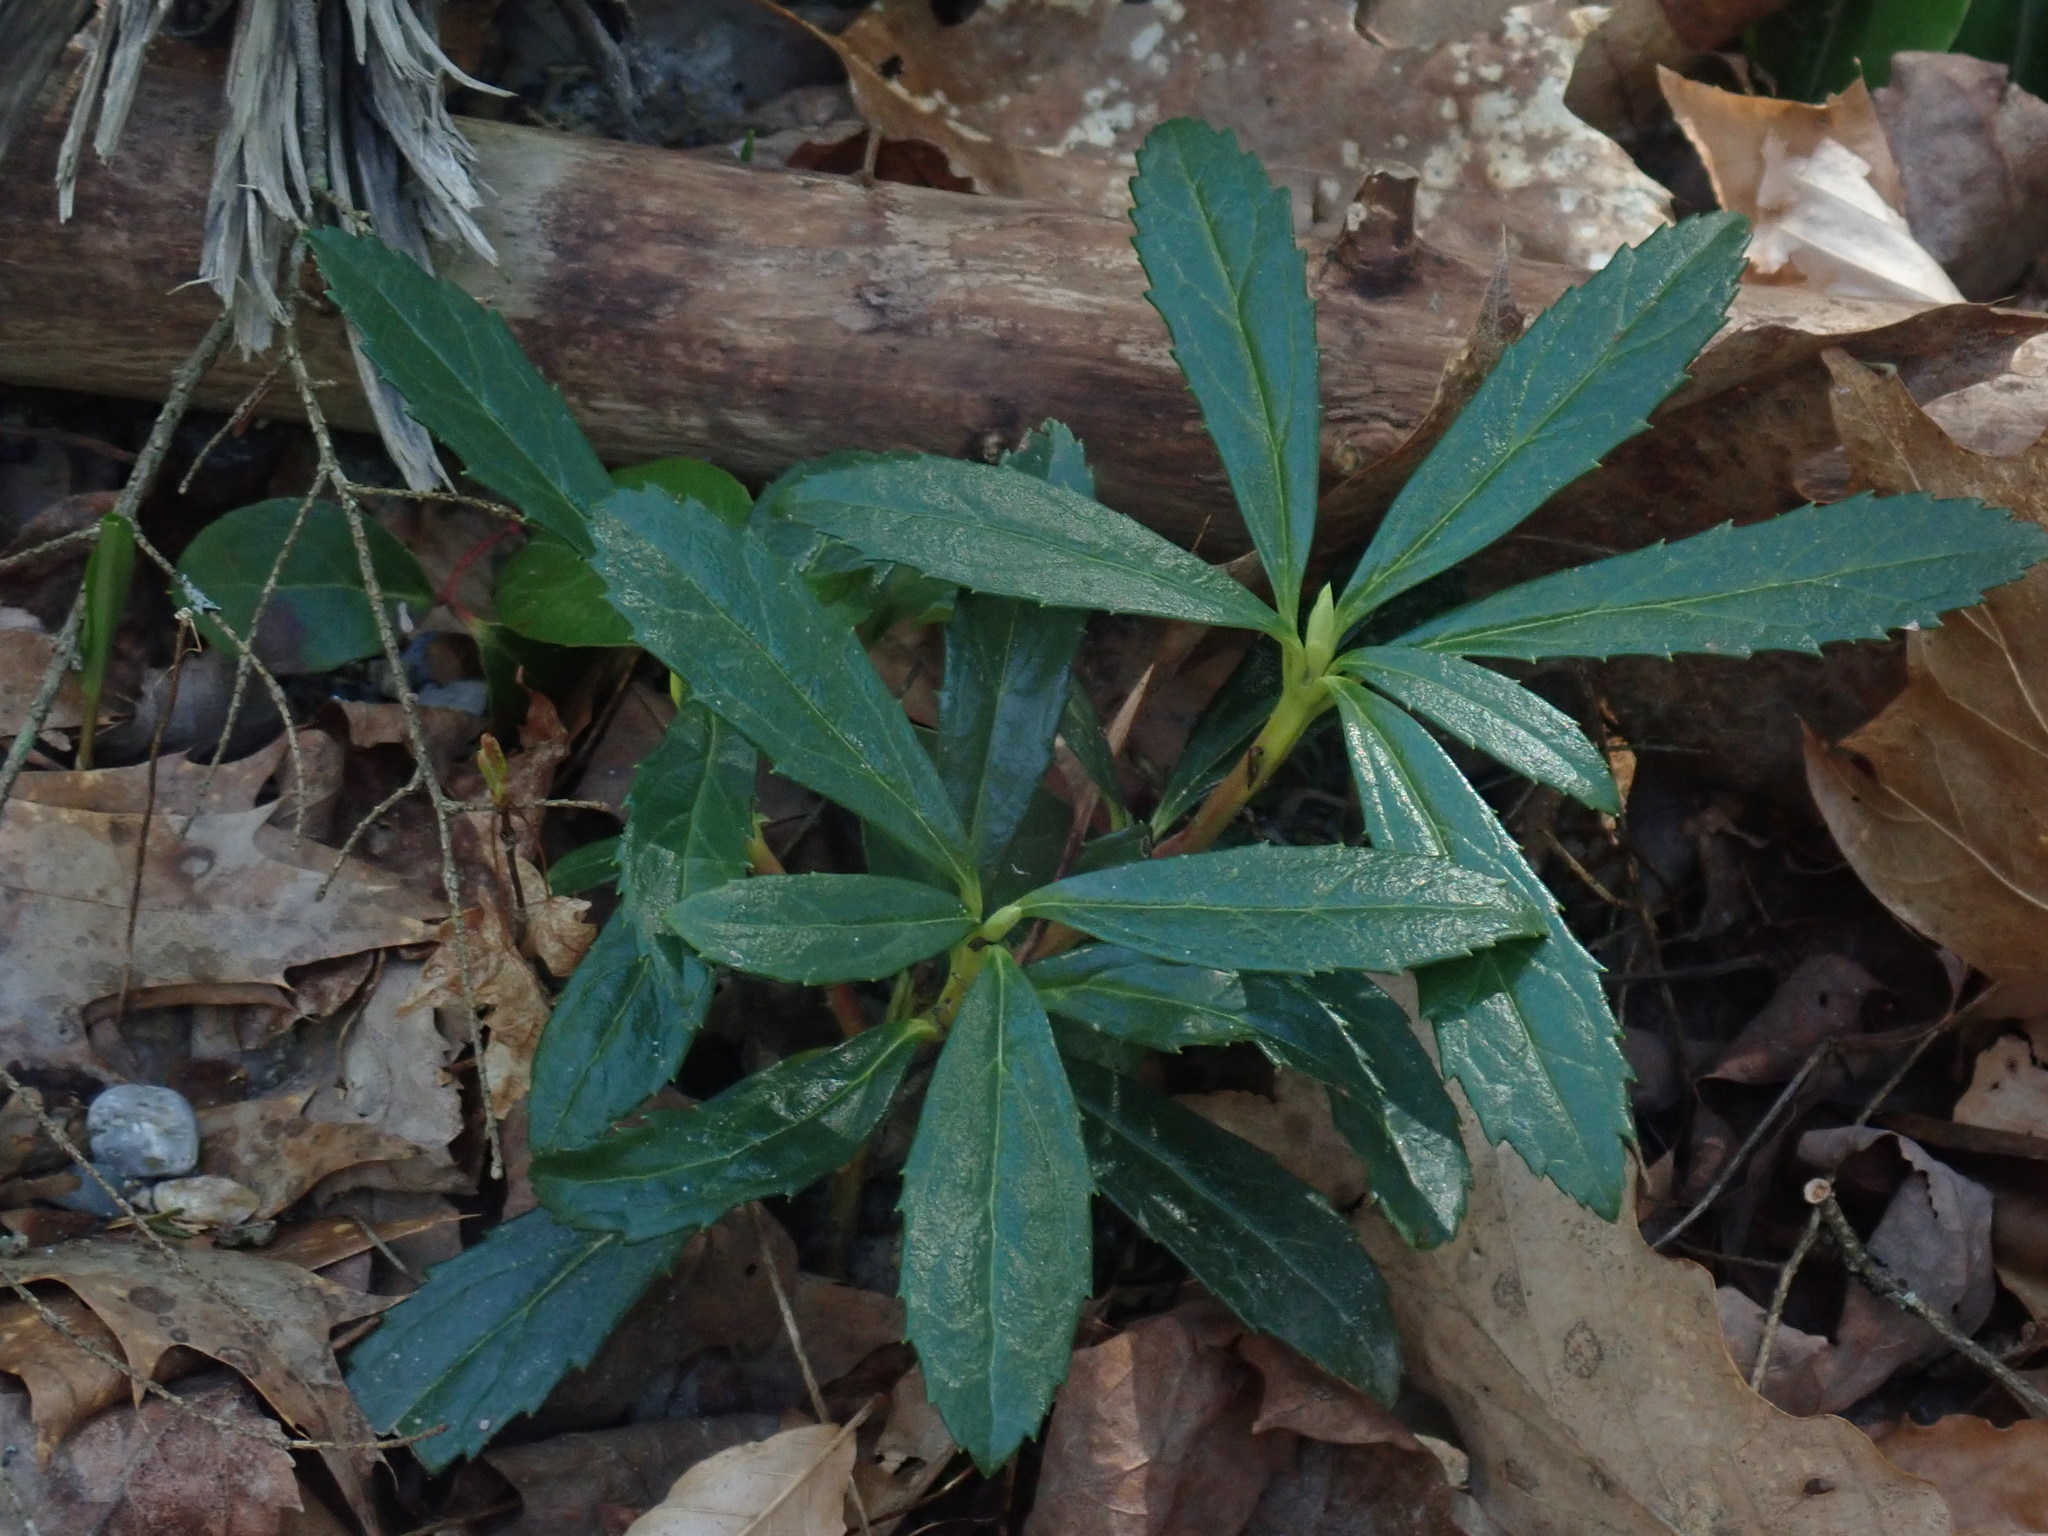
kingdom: Plantae
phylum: Tracheophyta
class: Magnoliopsida
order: Ericales
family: Ericaceae
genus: Chimaphila
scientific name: Chimaphila umbellata
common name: Pipsissewa
